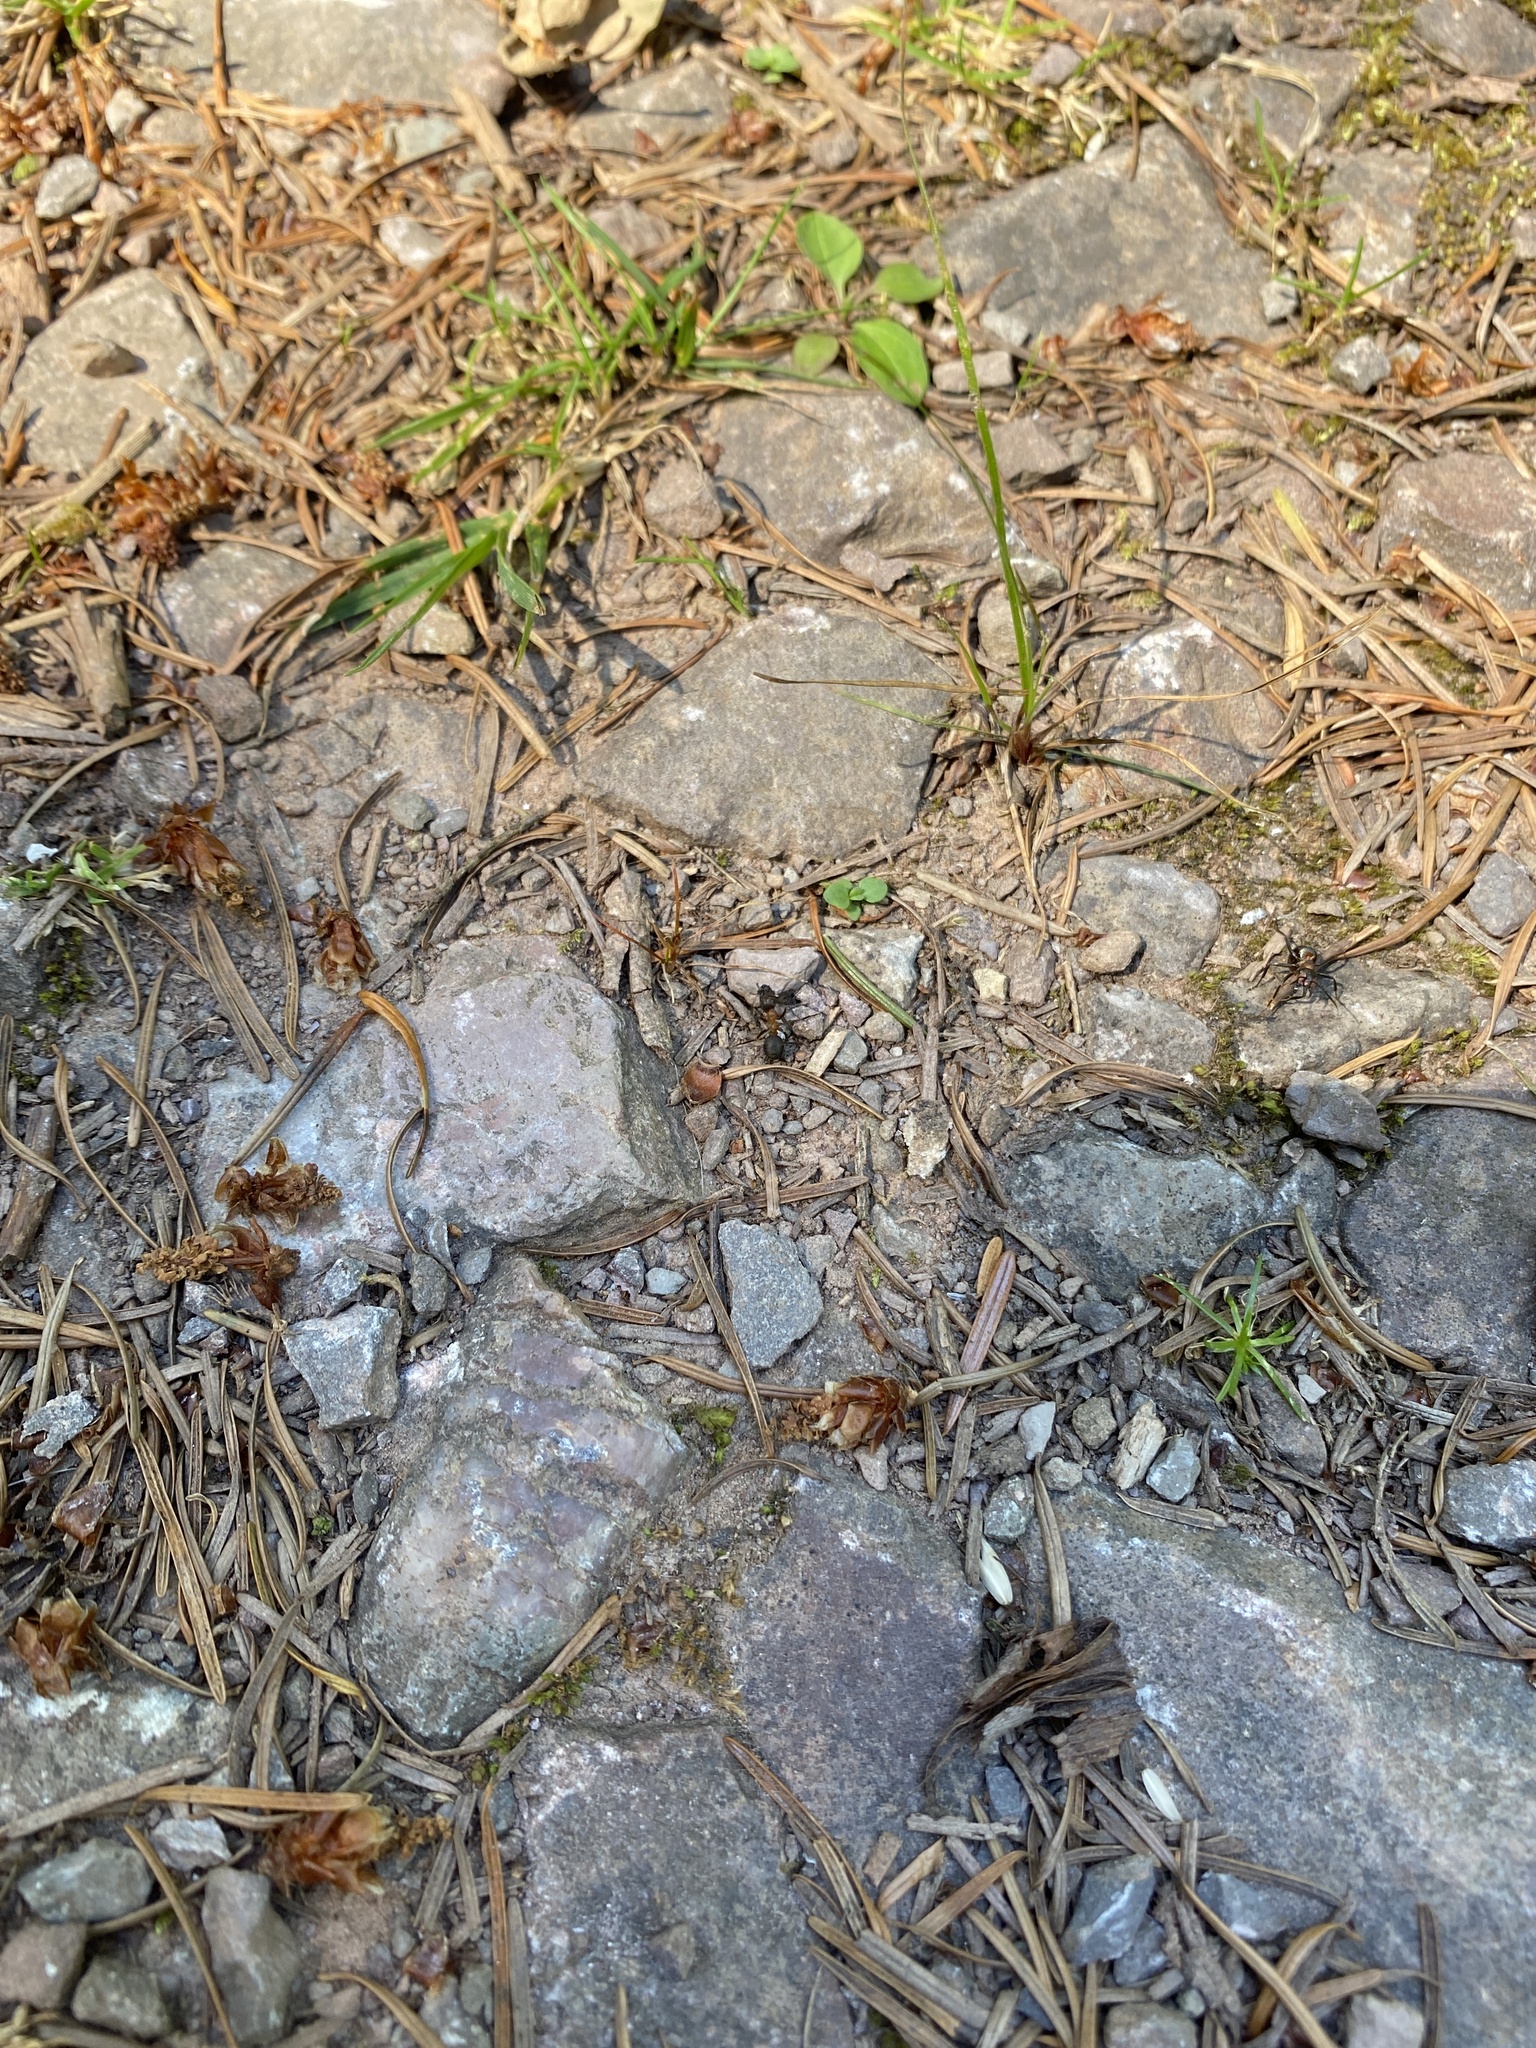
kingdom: Animalia
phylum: Arthropoda
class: Insecta
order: Hymenoptera
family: Formicidae
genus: Formica
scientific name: Formica
